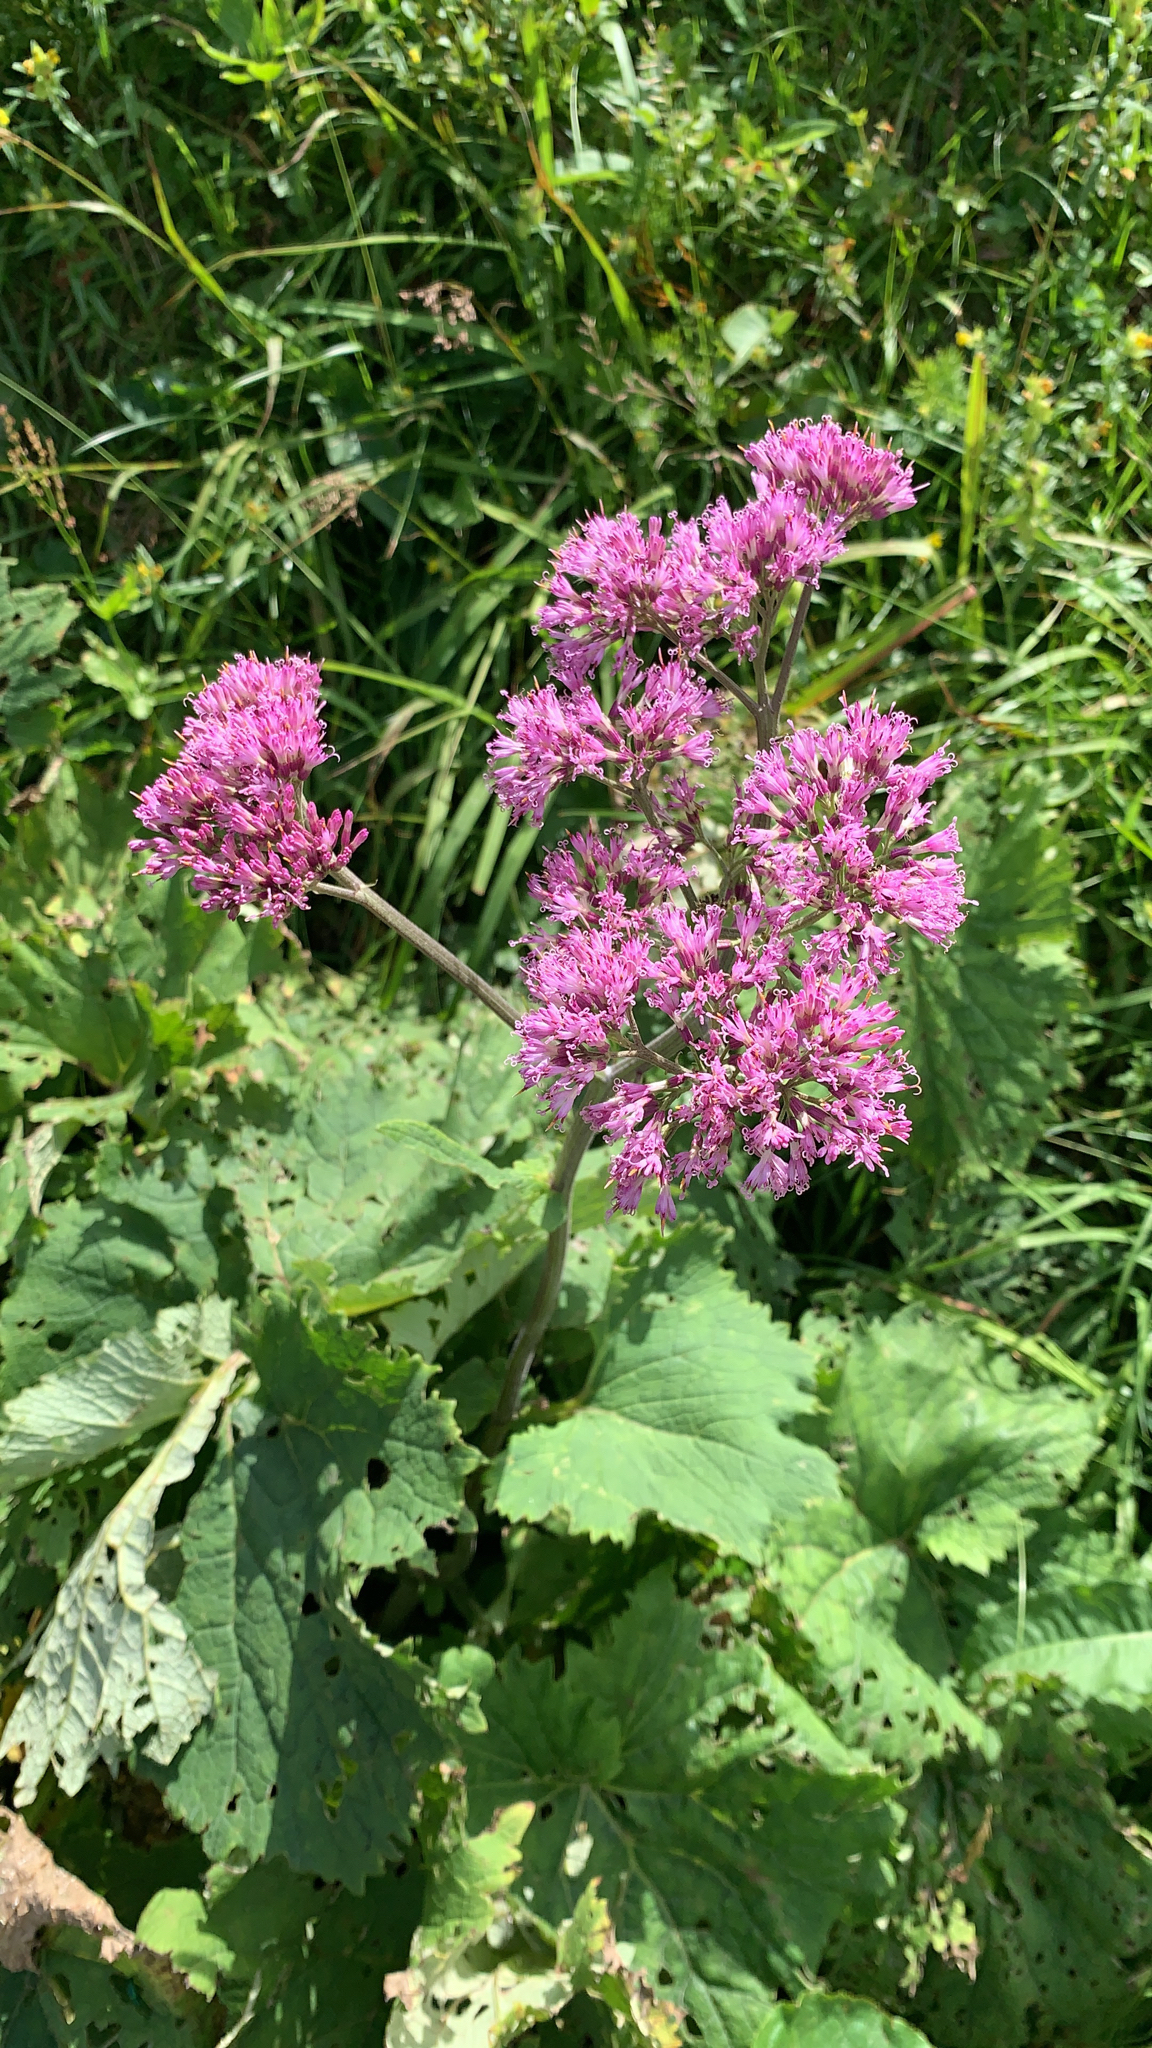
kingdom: Plantae
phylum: Tracheophyta
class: Magnoliopsida
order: Asterales
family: Asteraceae
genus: Adenostyles
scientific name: Adenostyles alliariae
